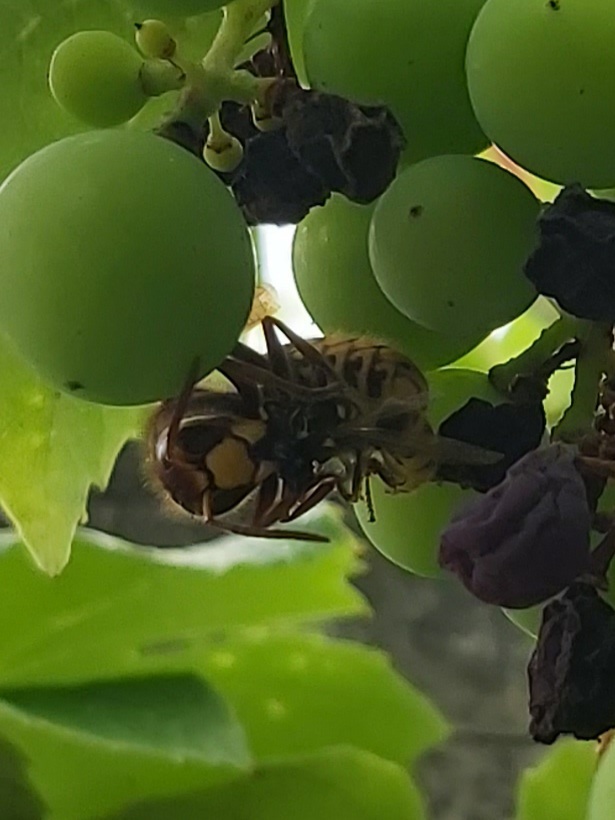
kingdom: Animalia
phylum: Arthropoda
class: Insecta
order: Hymenoptera
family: Vespidae
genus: Vespa
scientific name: Vespa crabro
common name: Hornet
